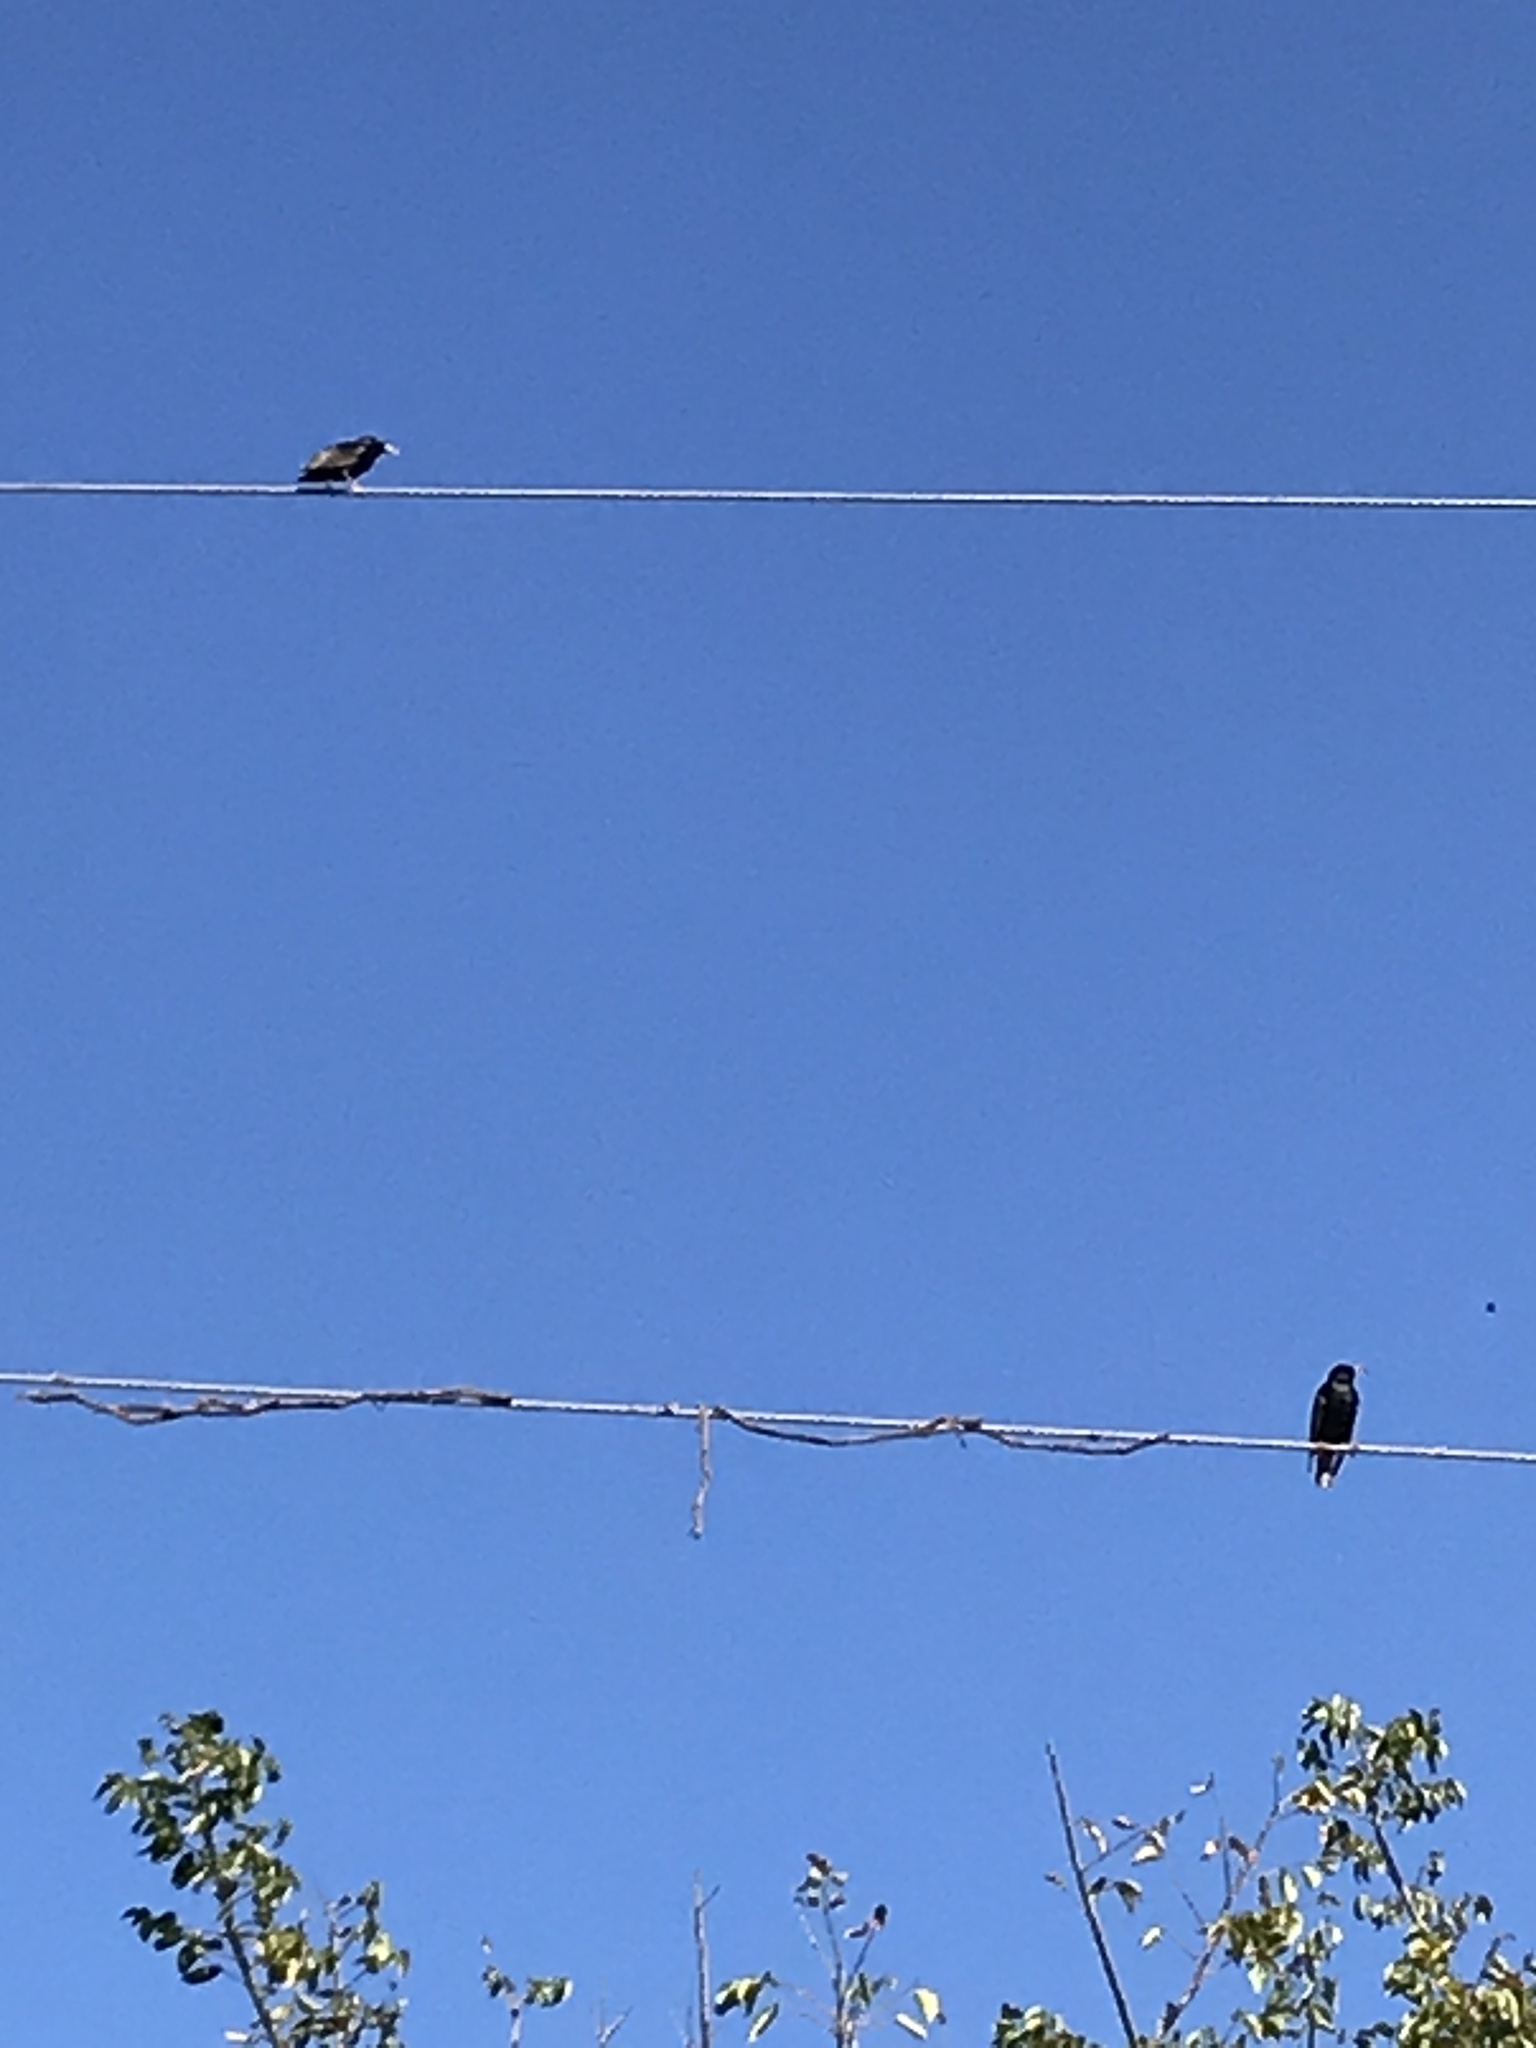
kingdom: Animalia
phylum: Chordata
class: Aves
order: Passeriformes
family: Sturnidae
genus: Sturnus
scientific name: Sturnus vulgaris
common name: Common starling
